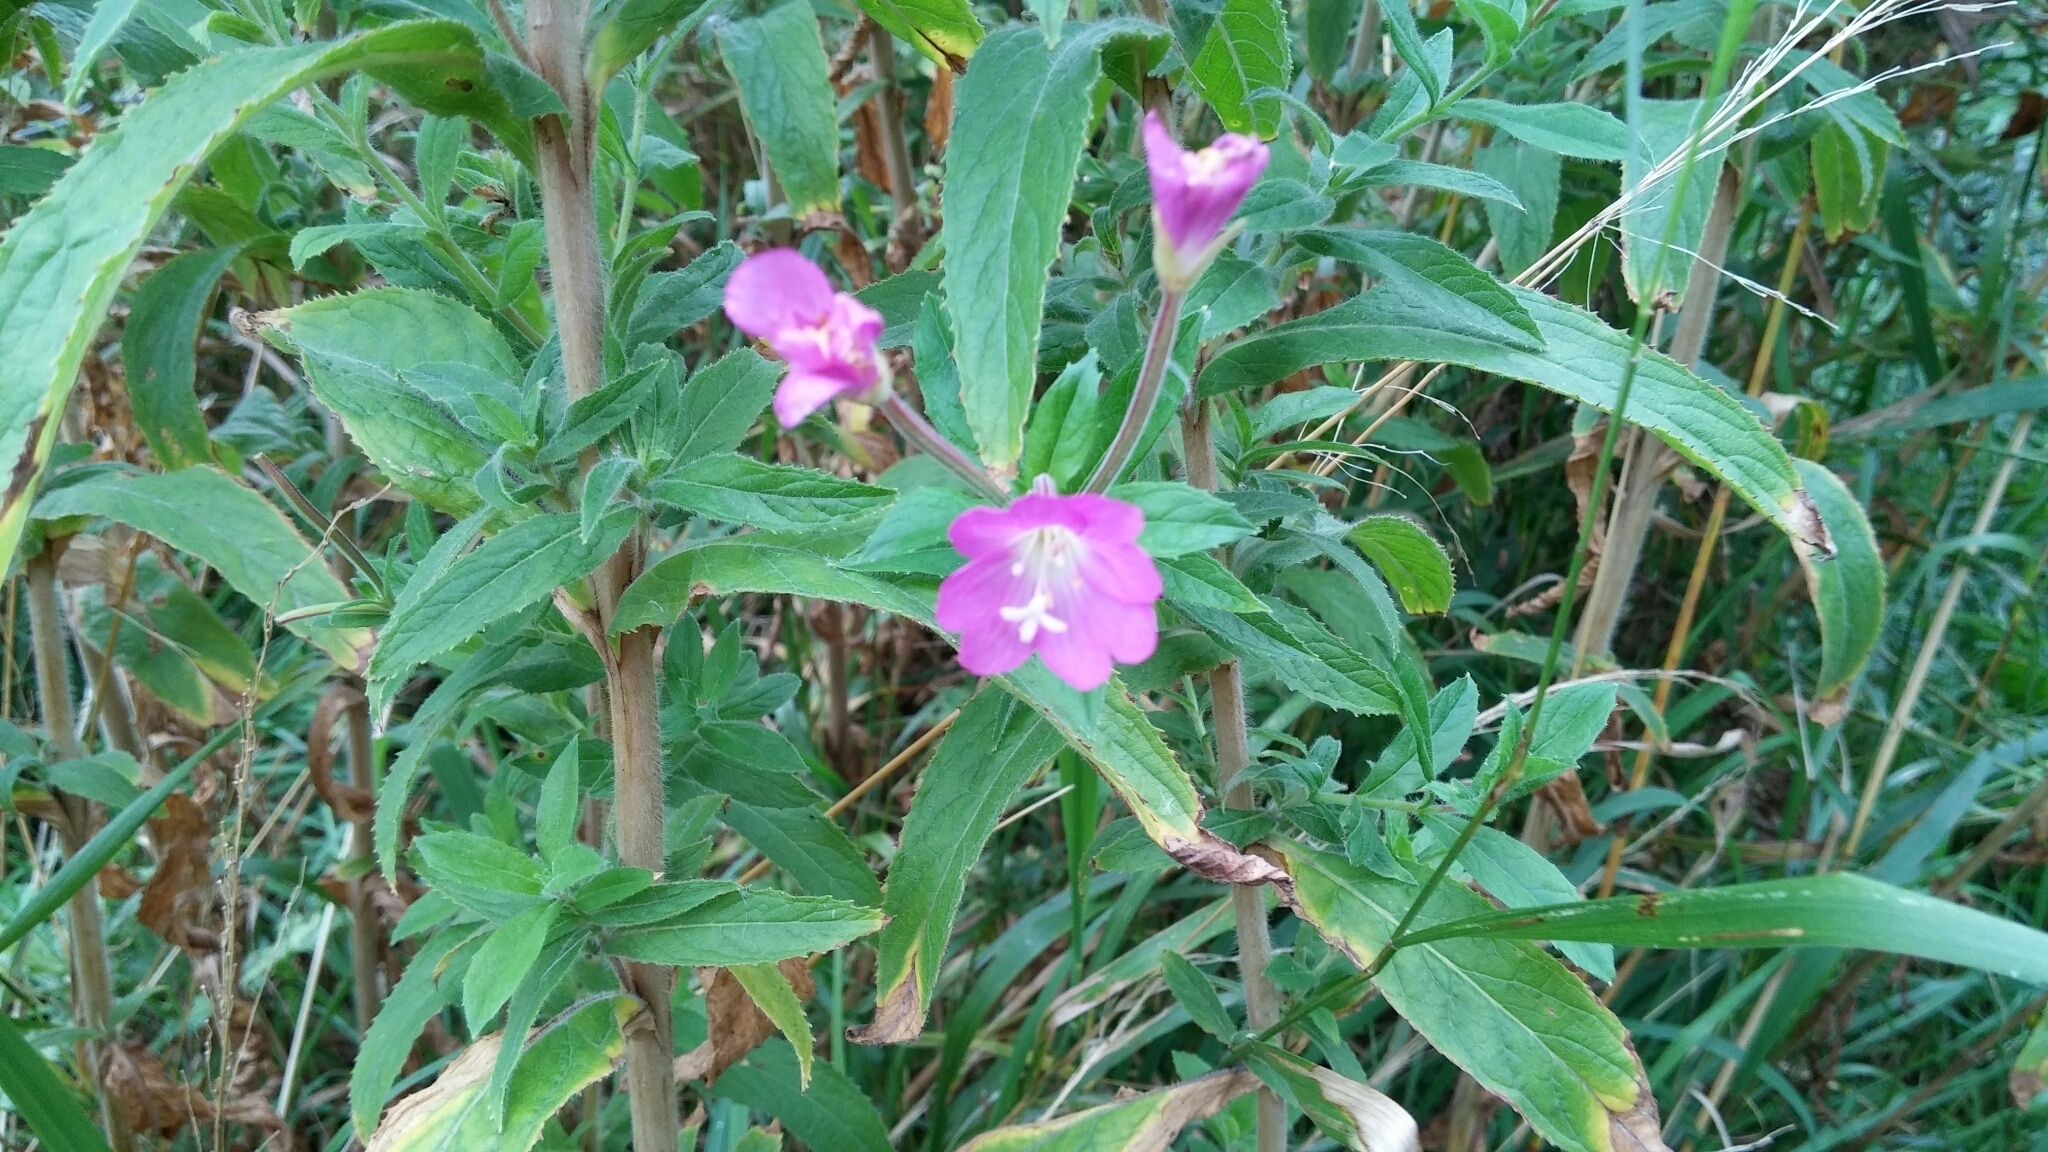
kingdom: Plantae
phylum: Tracheophyta
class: Magnoliopsida
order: Myrtales
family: Onagraceae
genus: Epilobium
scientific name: Epilobium hirsutum
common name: Great willowherb
